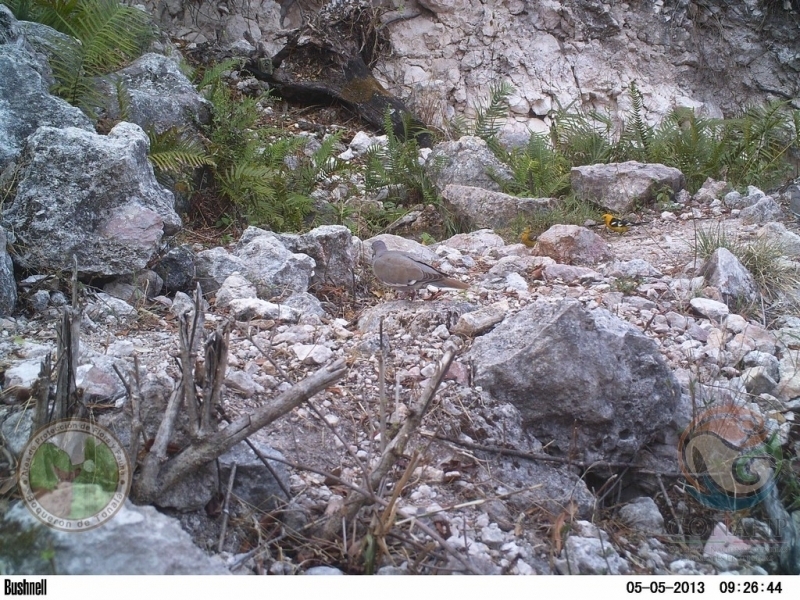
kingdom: Animalia
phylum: Chordata
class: Aves
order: Passeriformes
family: Cardinalidae
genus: Pheucticus
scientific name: Pheucticus chrysopeplus
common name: Yellow grosbeak
